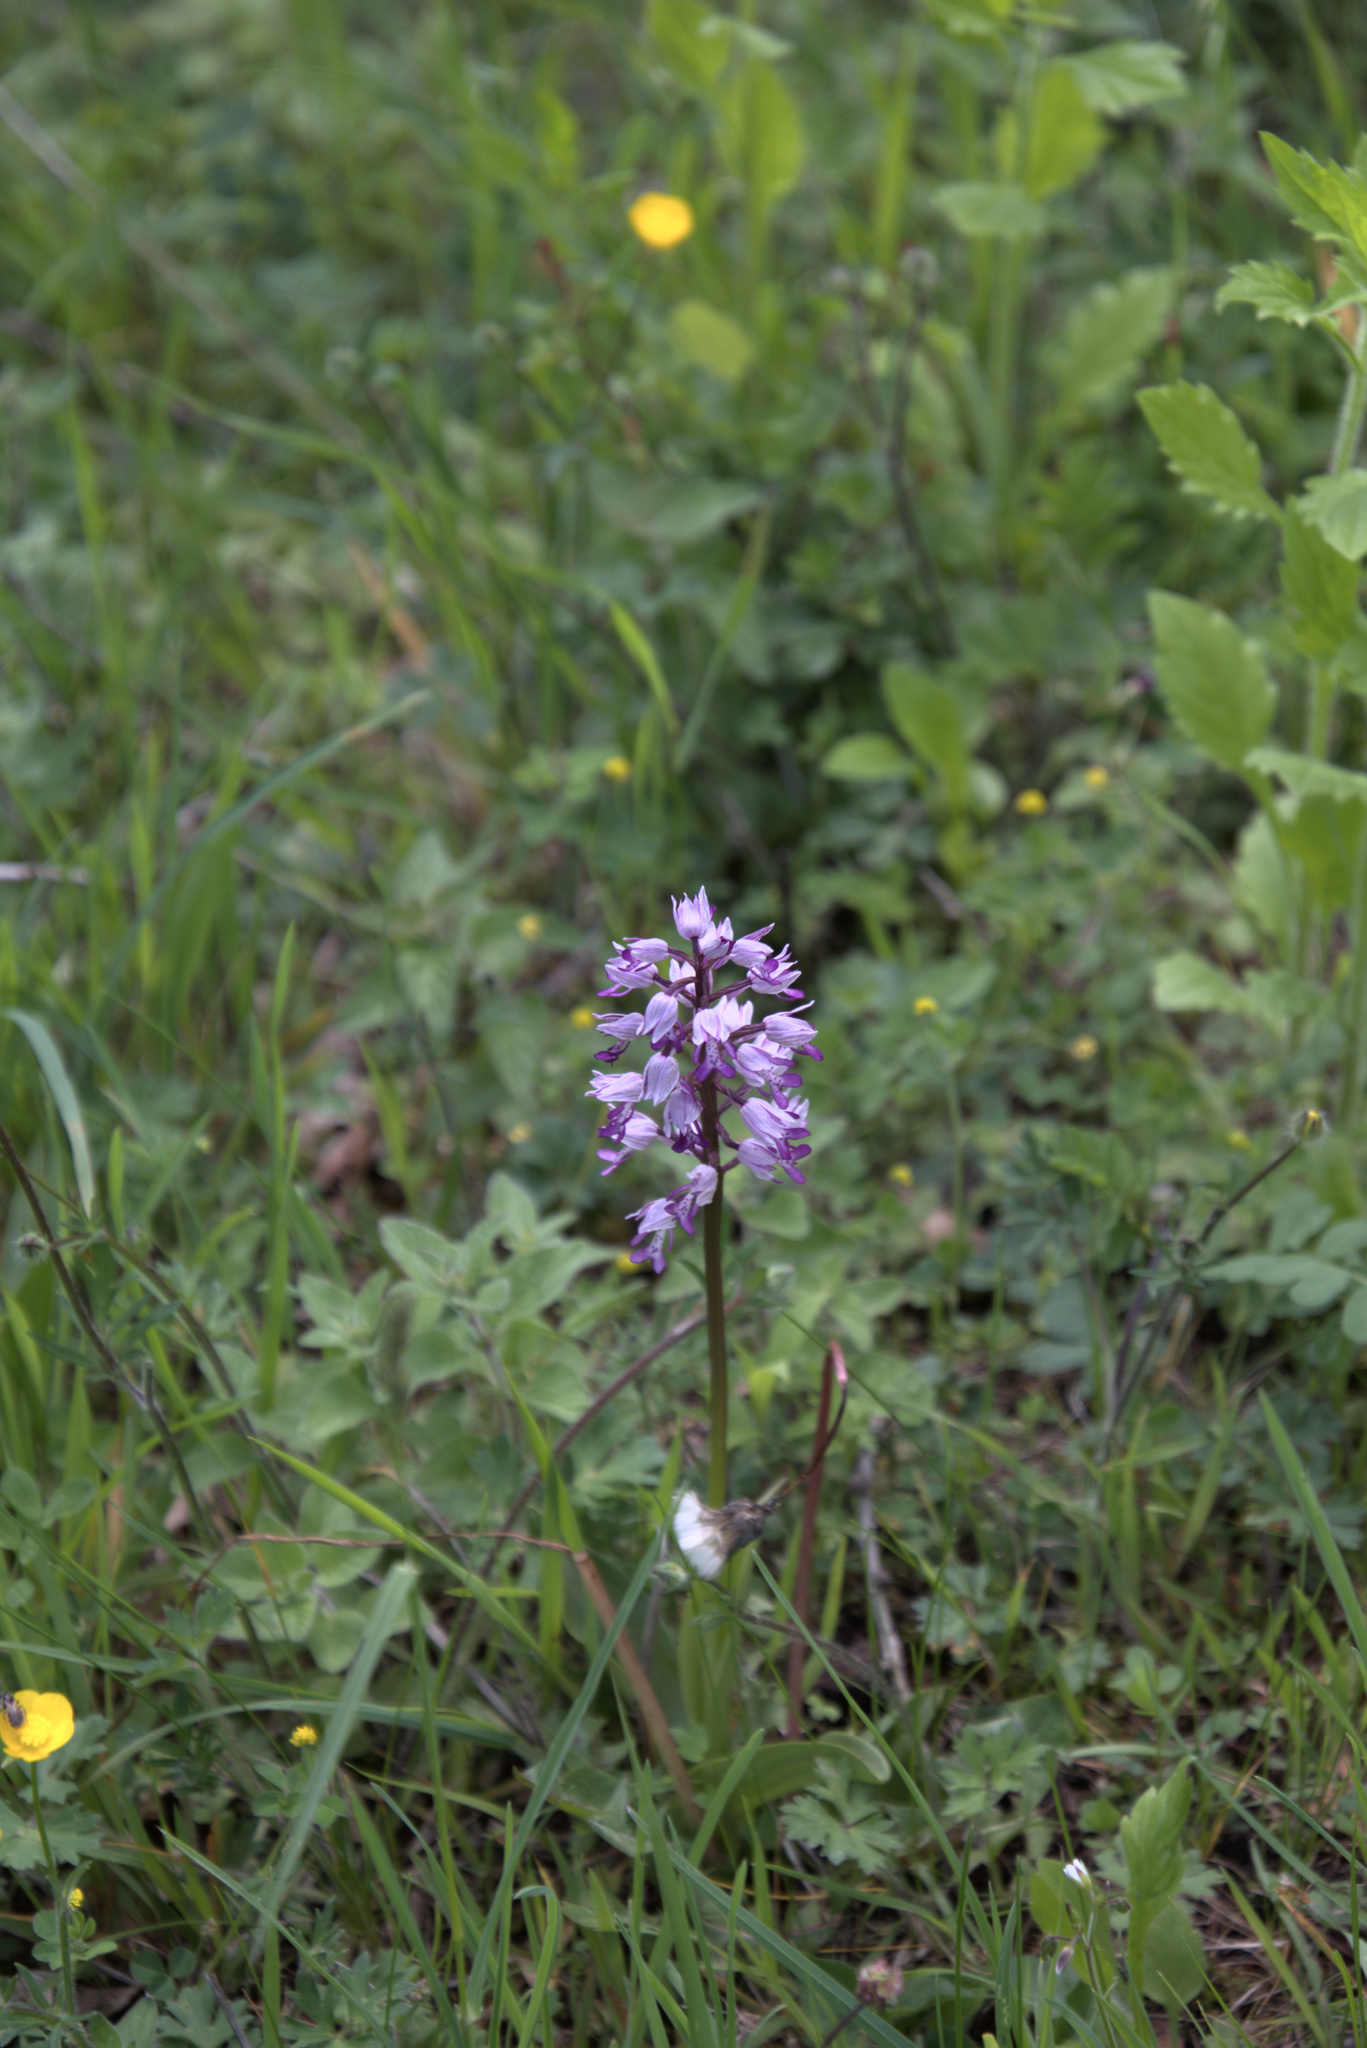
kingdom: Plantae
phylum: Tracheophyta
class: Liliopsida
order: Asparagales
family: Orchidaceae
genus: Orchis
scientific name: Orchis militaris
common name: Military orchid
